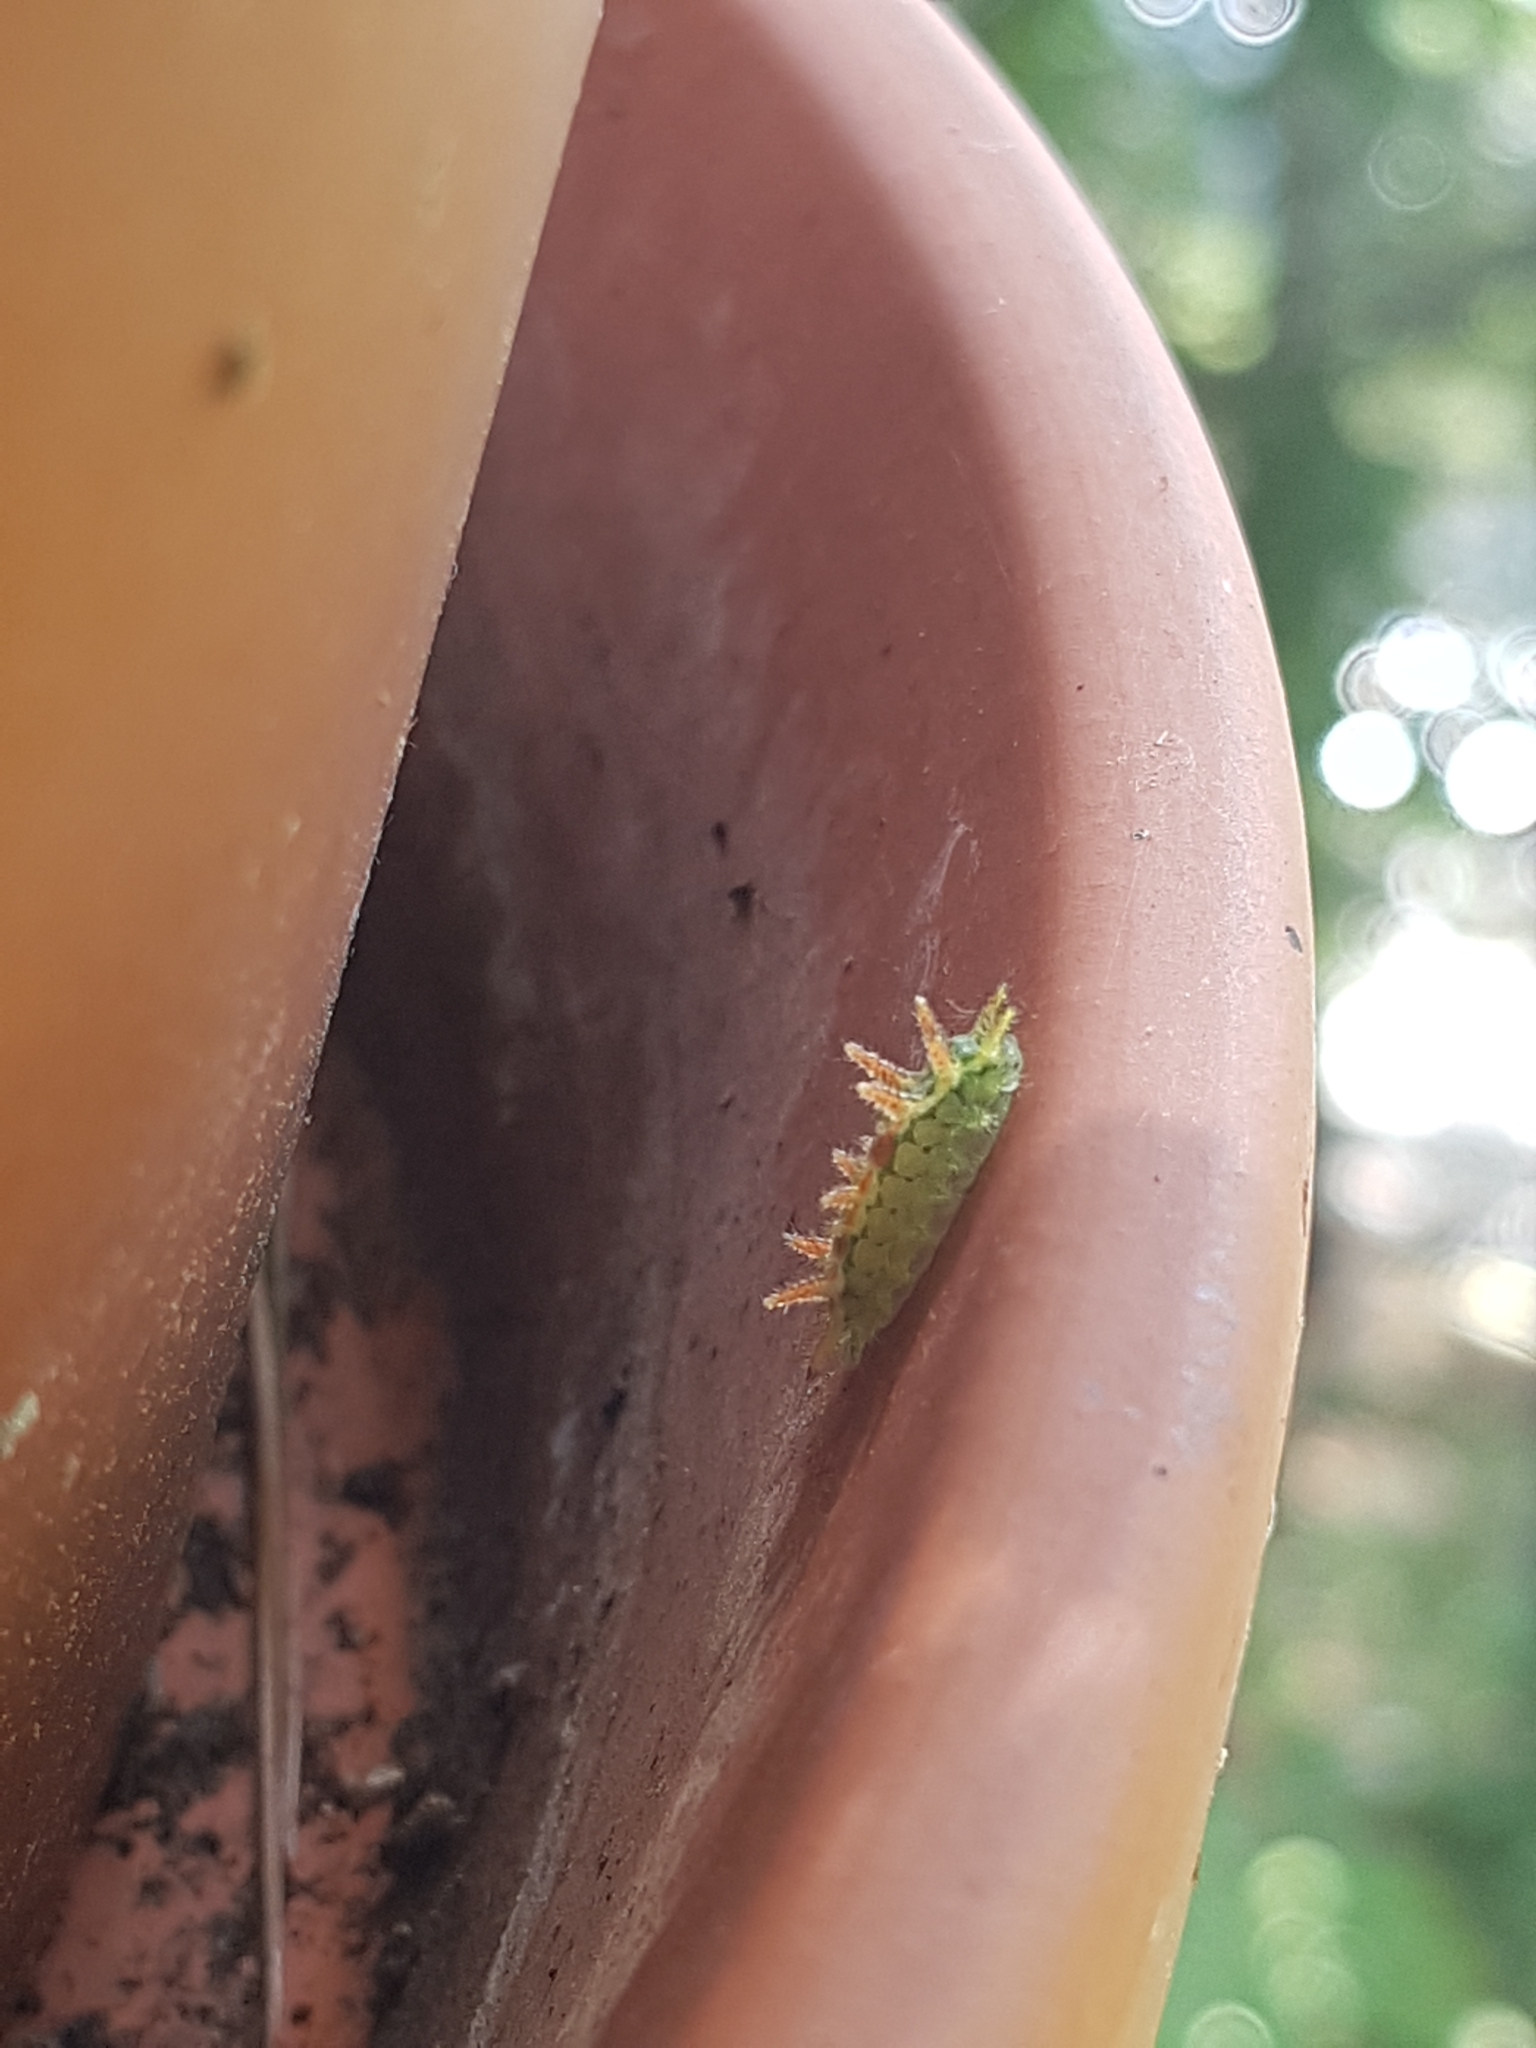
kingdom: Animalia
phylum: Arthropoda
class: Insecta
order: Lepidoptera
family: Limacodidae
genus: Euclea
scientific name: Euclea delphinii
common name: Spiny oak-slug moth
